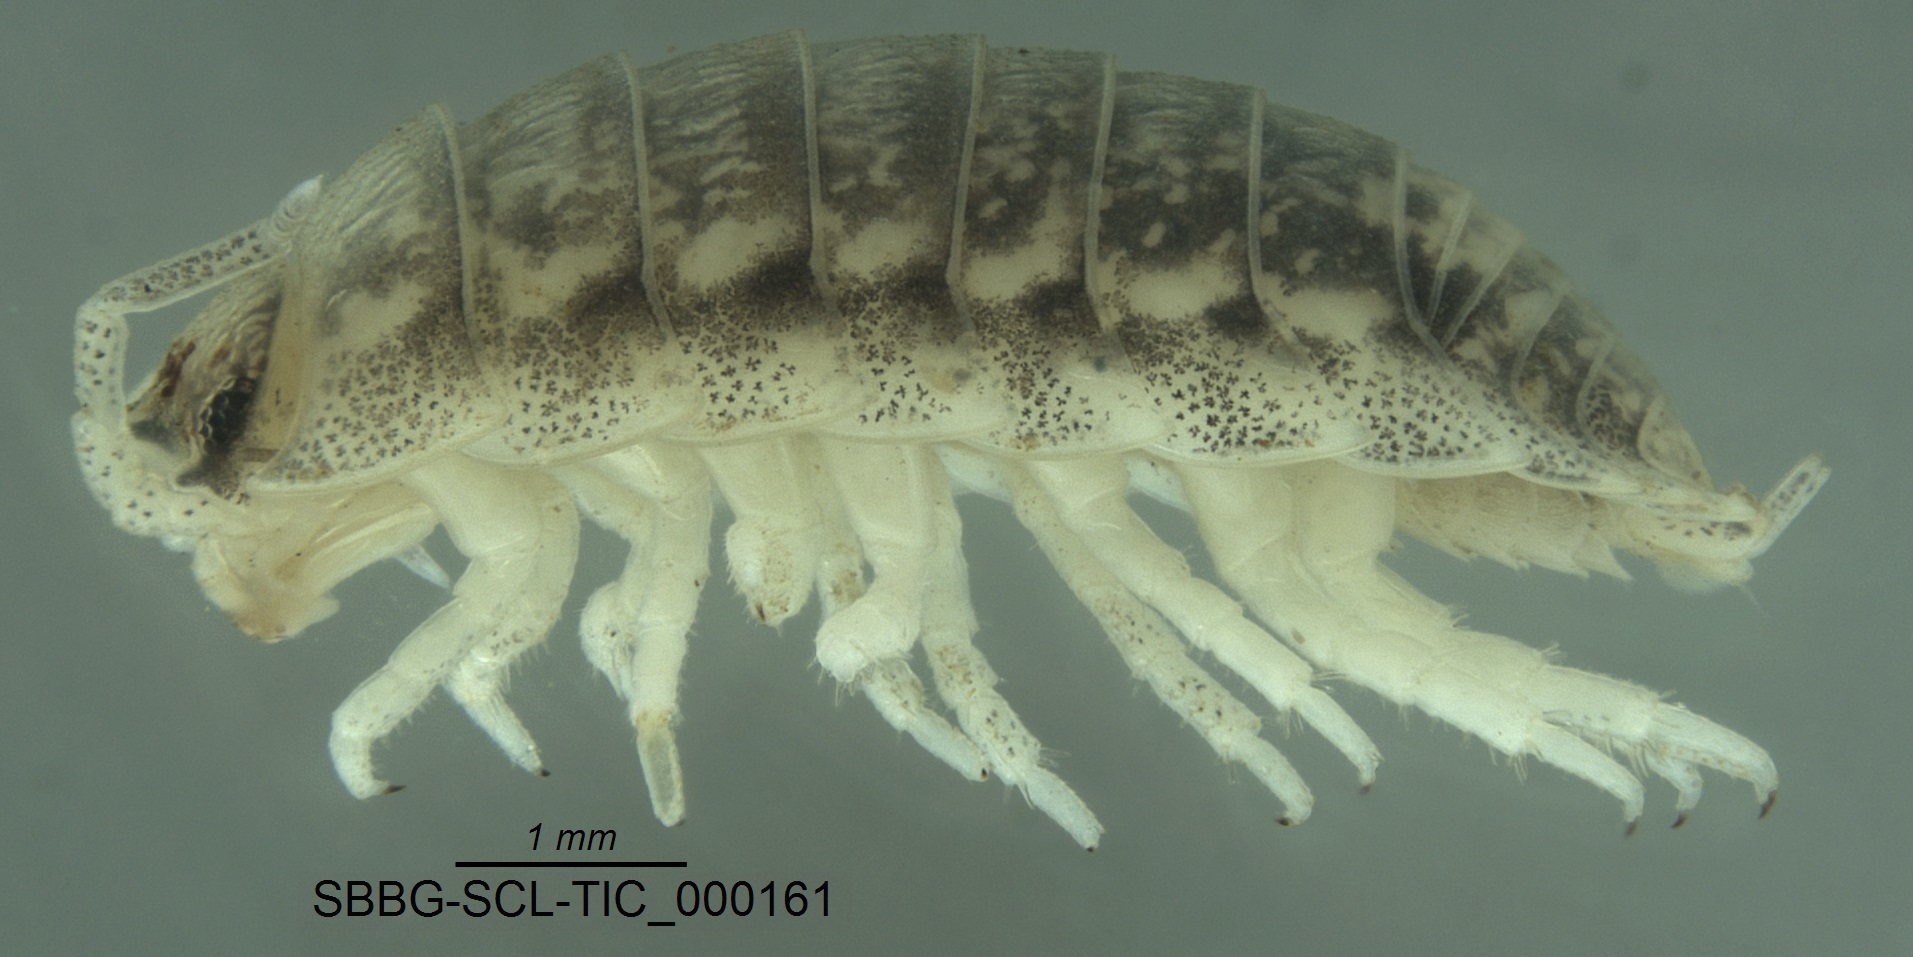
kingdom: Animalia
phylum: Arthropoda
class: Malacostraca
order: Isopoda
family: Alloniscidae
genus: Alloniscus
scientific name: Alloniscus mirabilis
